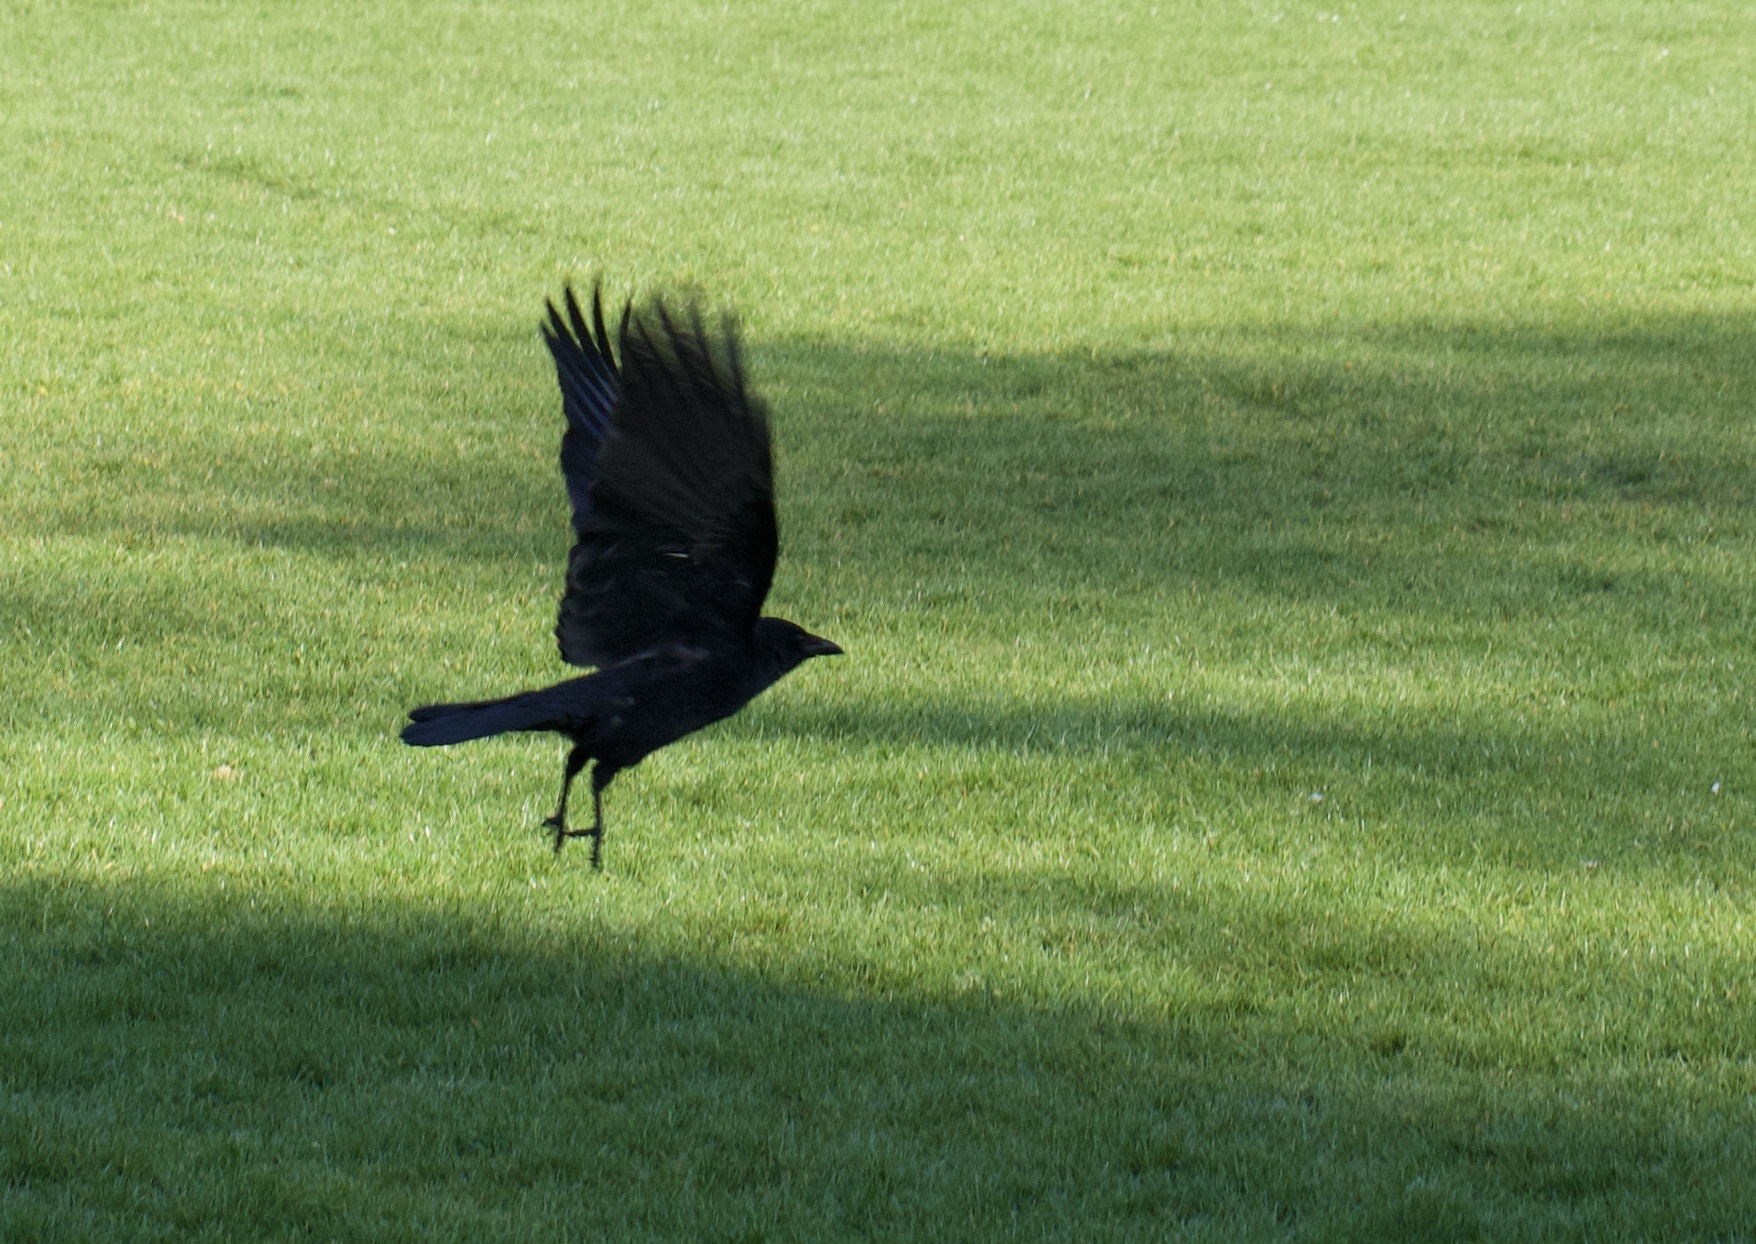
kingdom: Animalia
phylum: Chordata
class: Aves
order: Passeriformes
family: Corvidae
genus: Corvus
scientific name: Corvus corone
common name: Carrion crow
